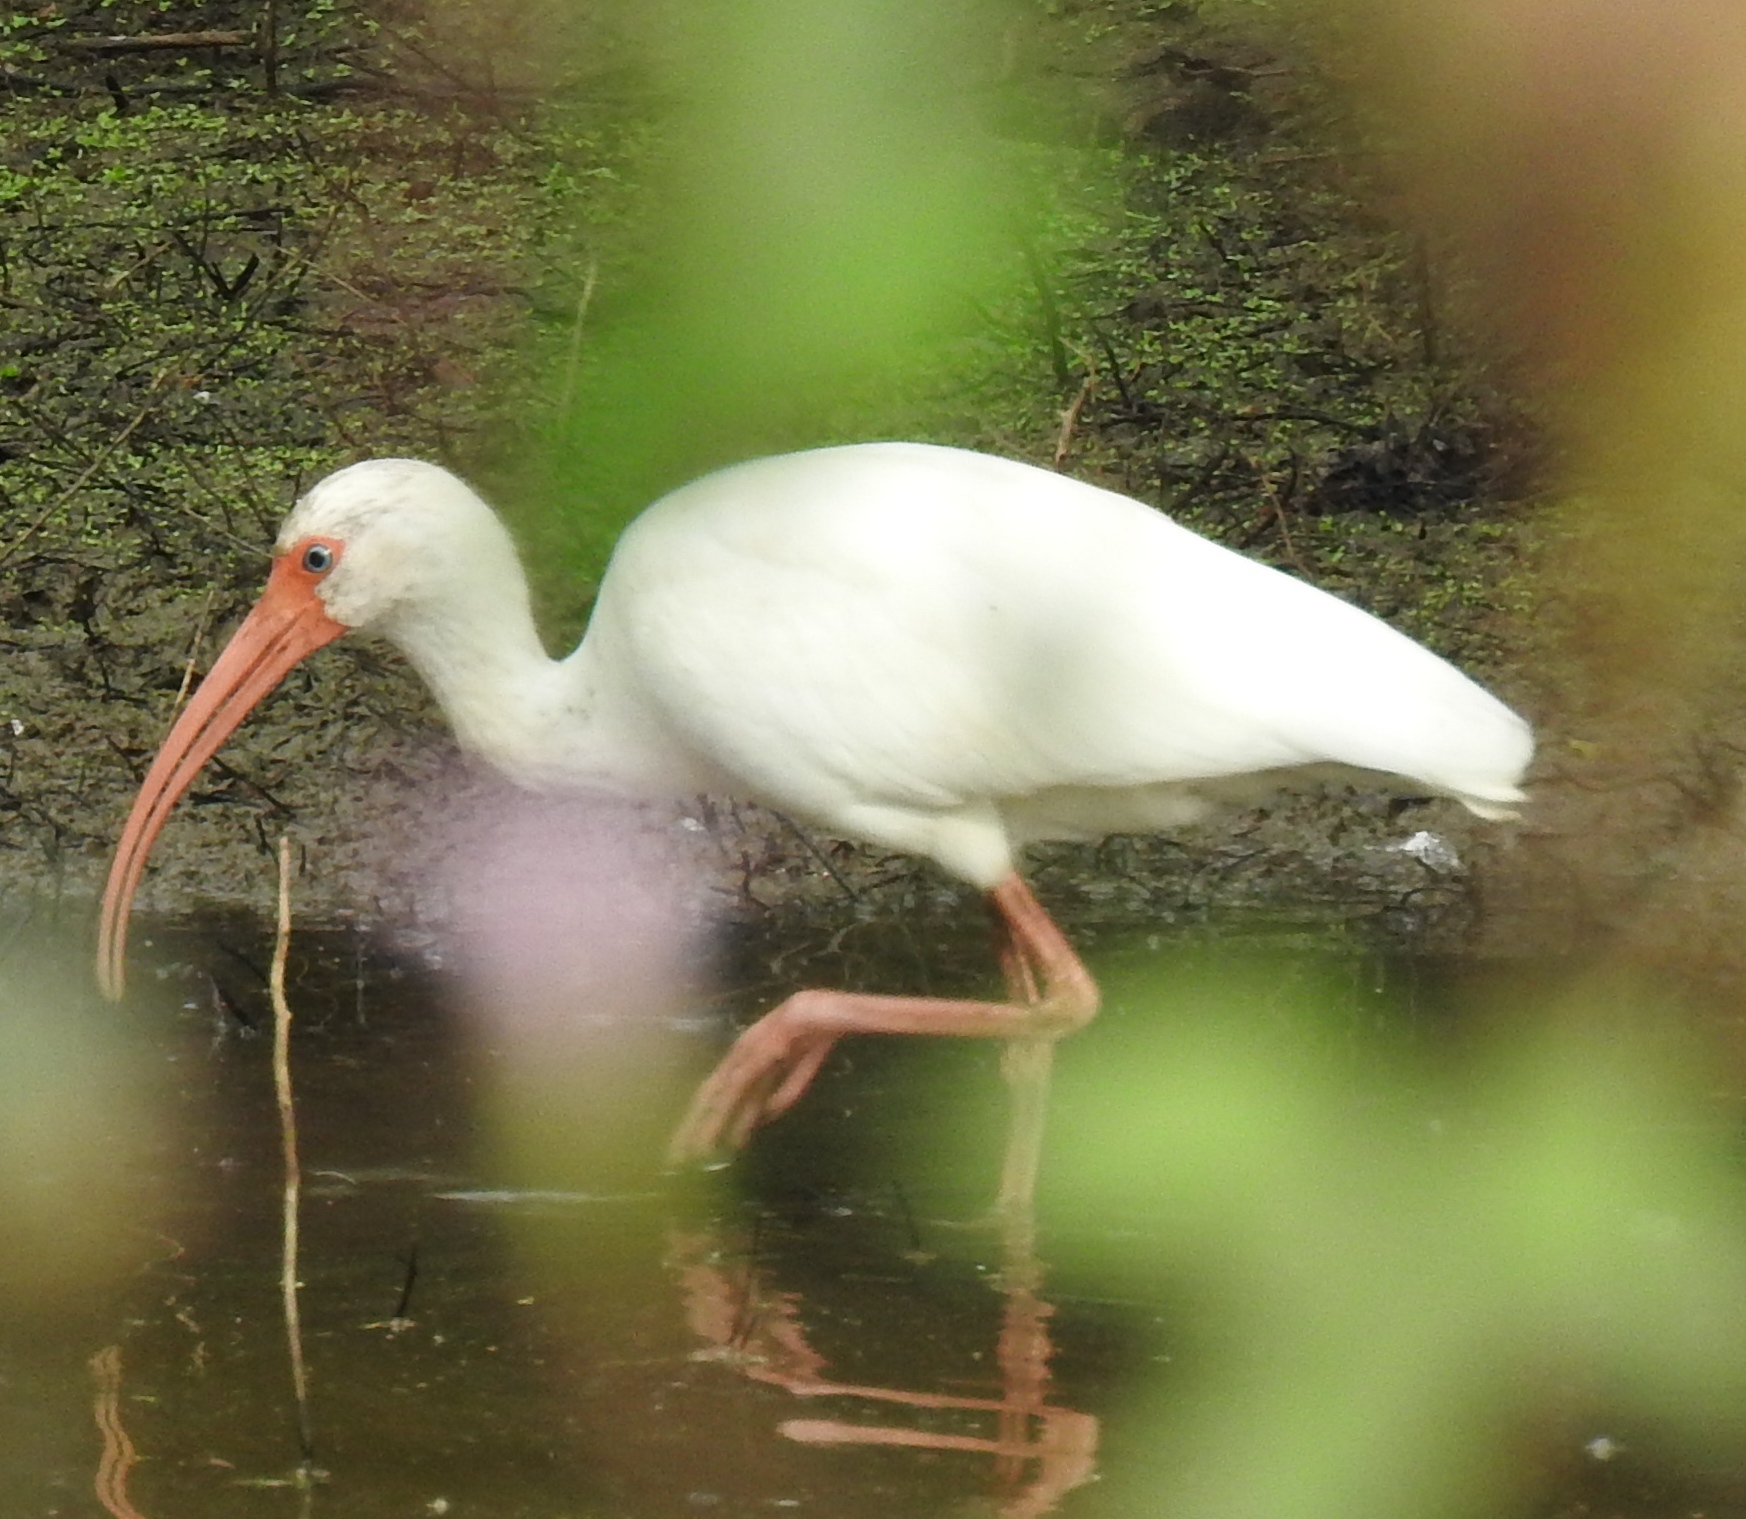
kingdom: Animalia
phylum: Chordata
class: Aves
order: Pelecaniformes
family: Threskiornithidae
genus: Eudocimus
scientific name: Eudocimus albus
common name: White ibis
